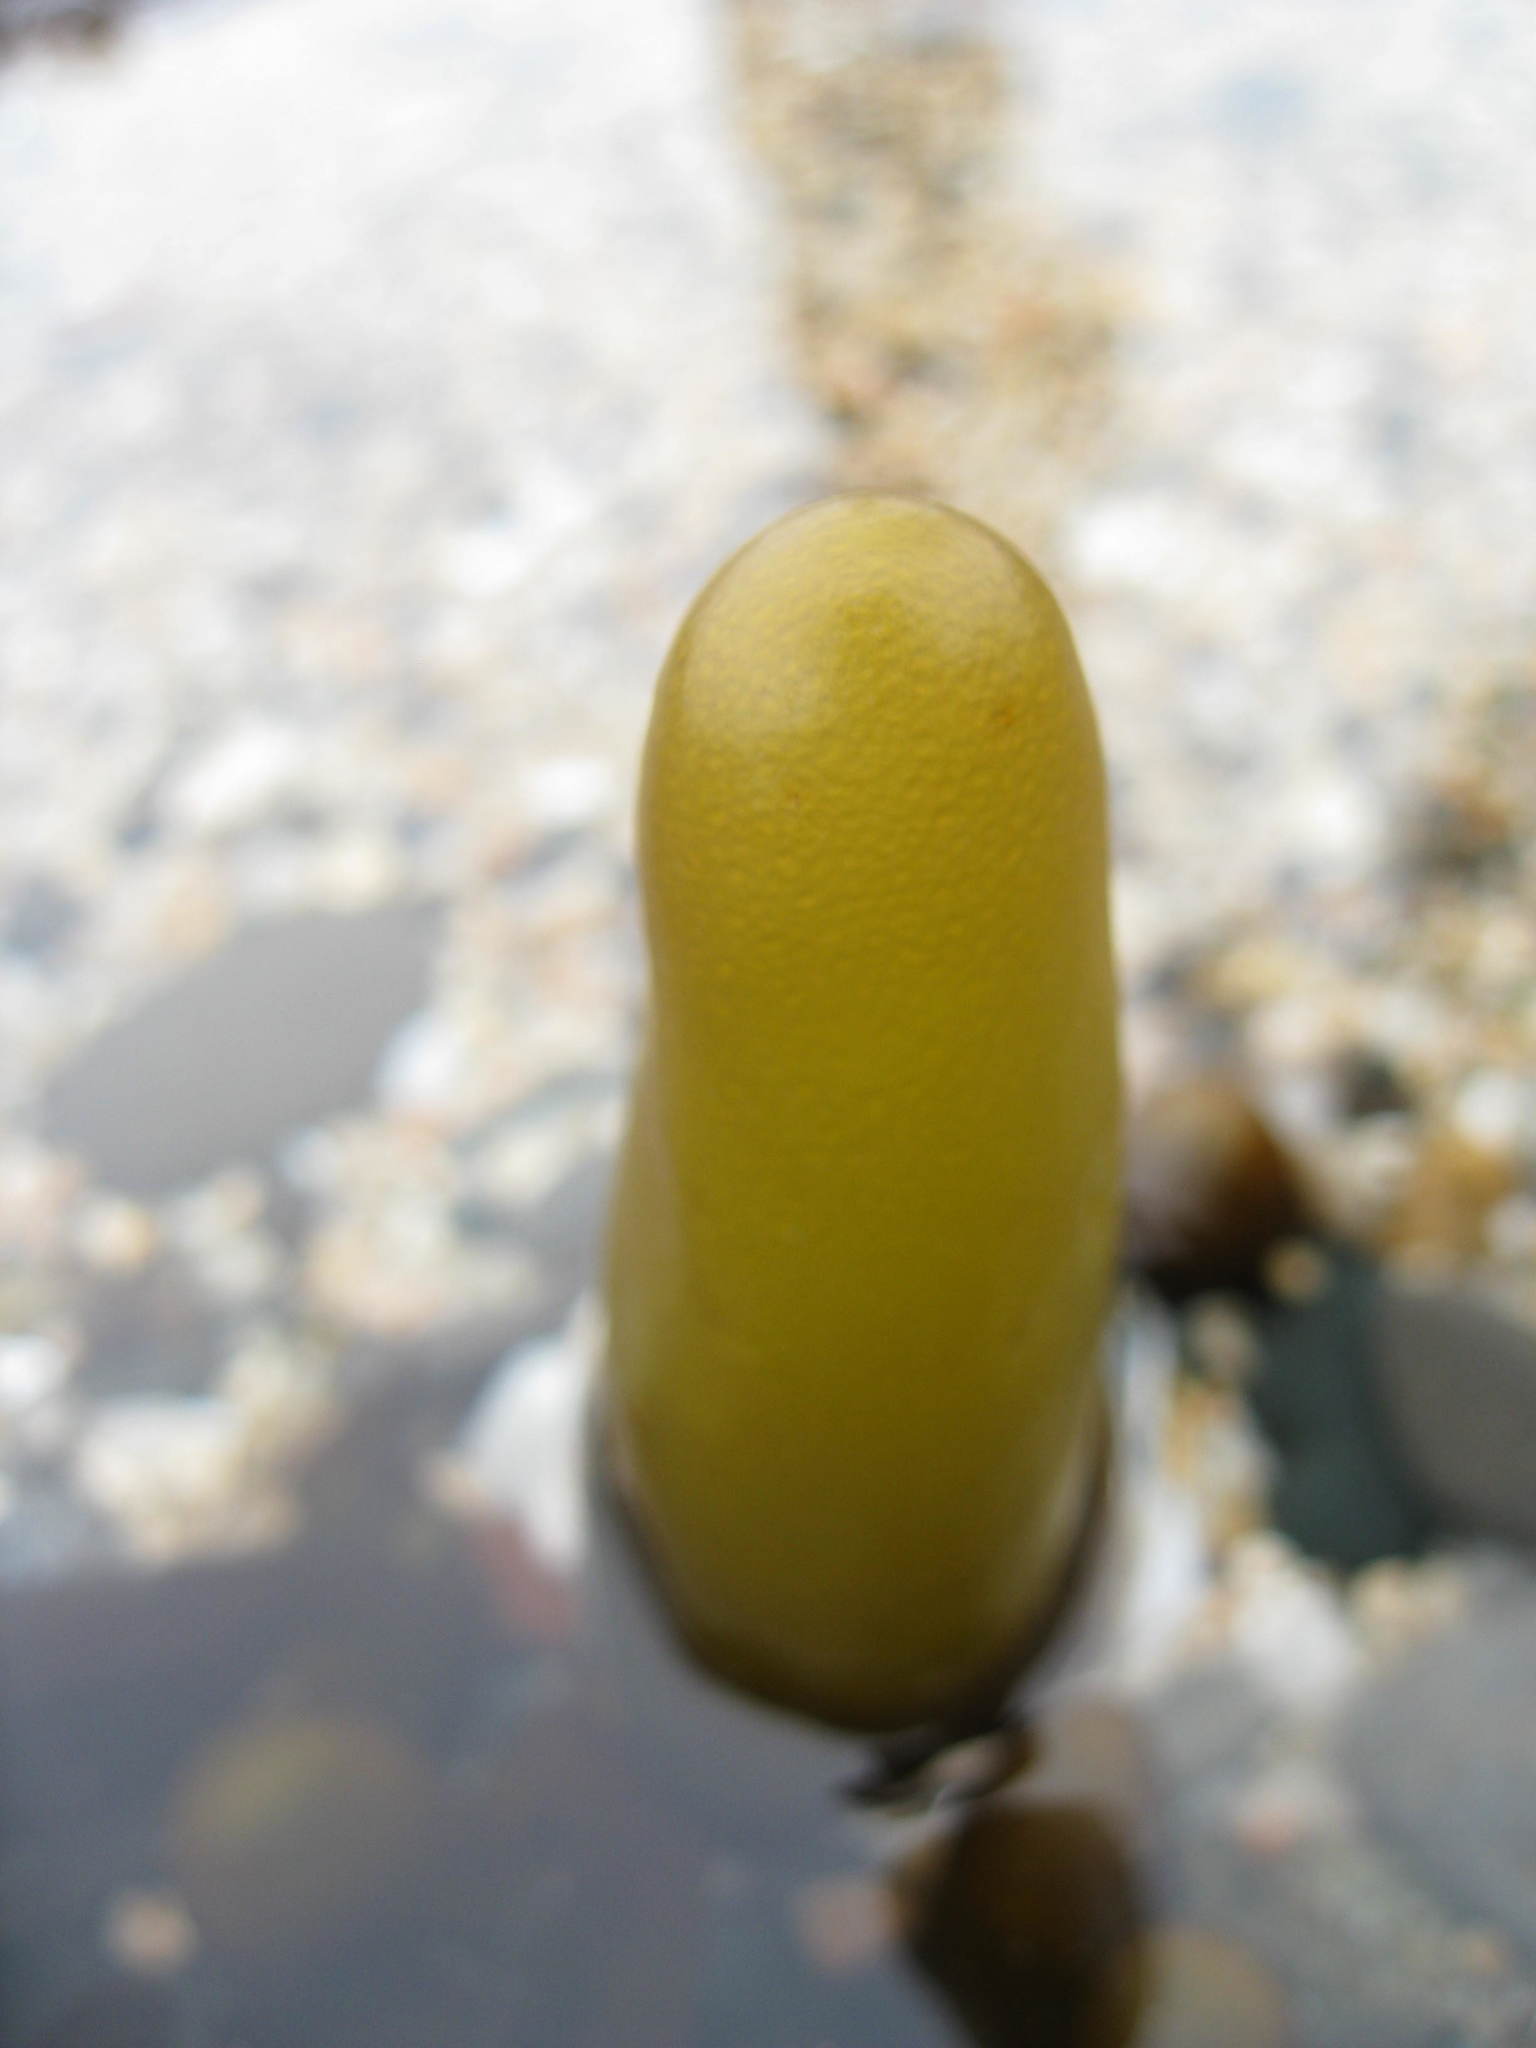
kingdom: Plantae
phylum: Rhodophyta
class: Florideophyceae
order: Palmariales
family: Palmariaceae
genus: Halosaccion
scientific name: Halosaccion glandiforme
